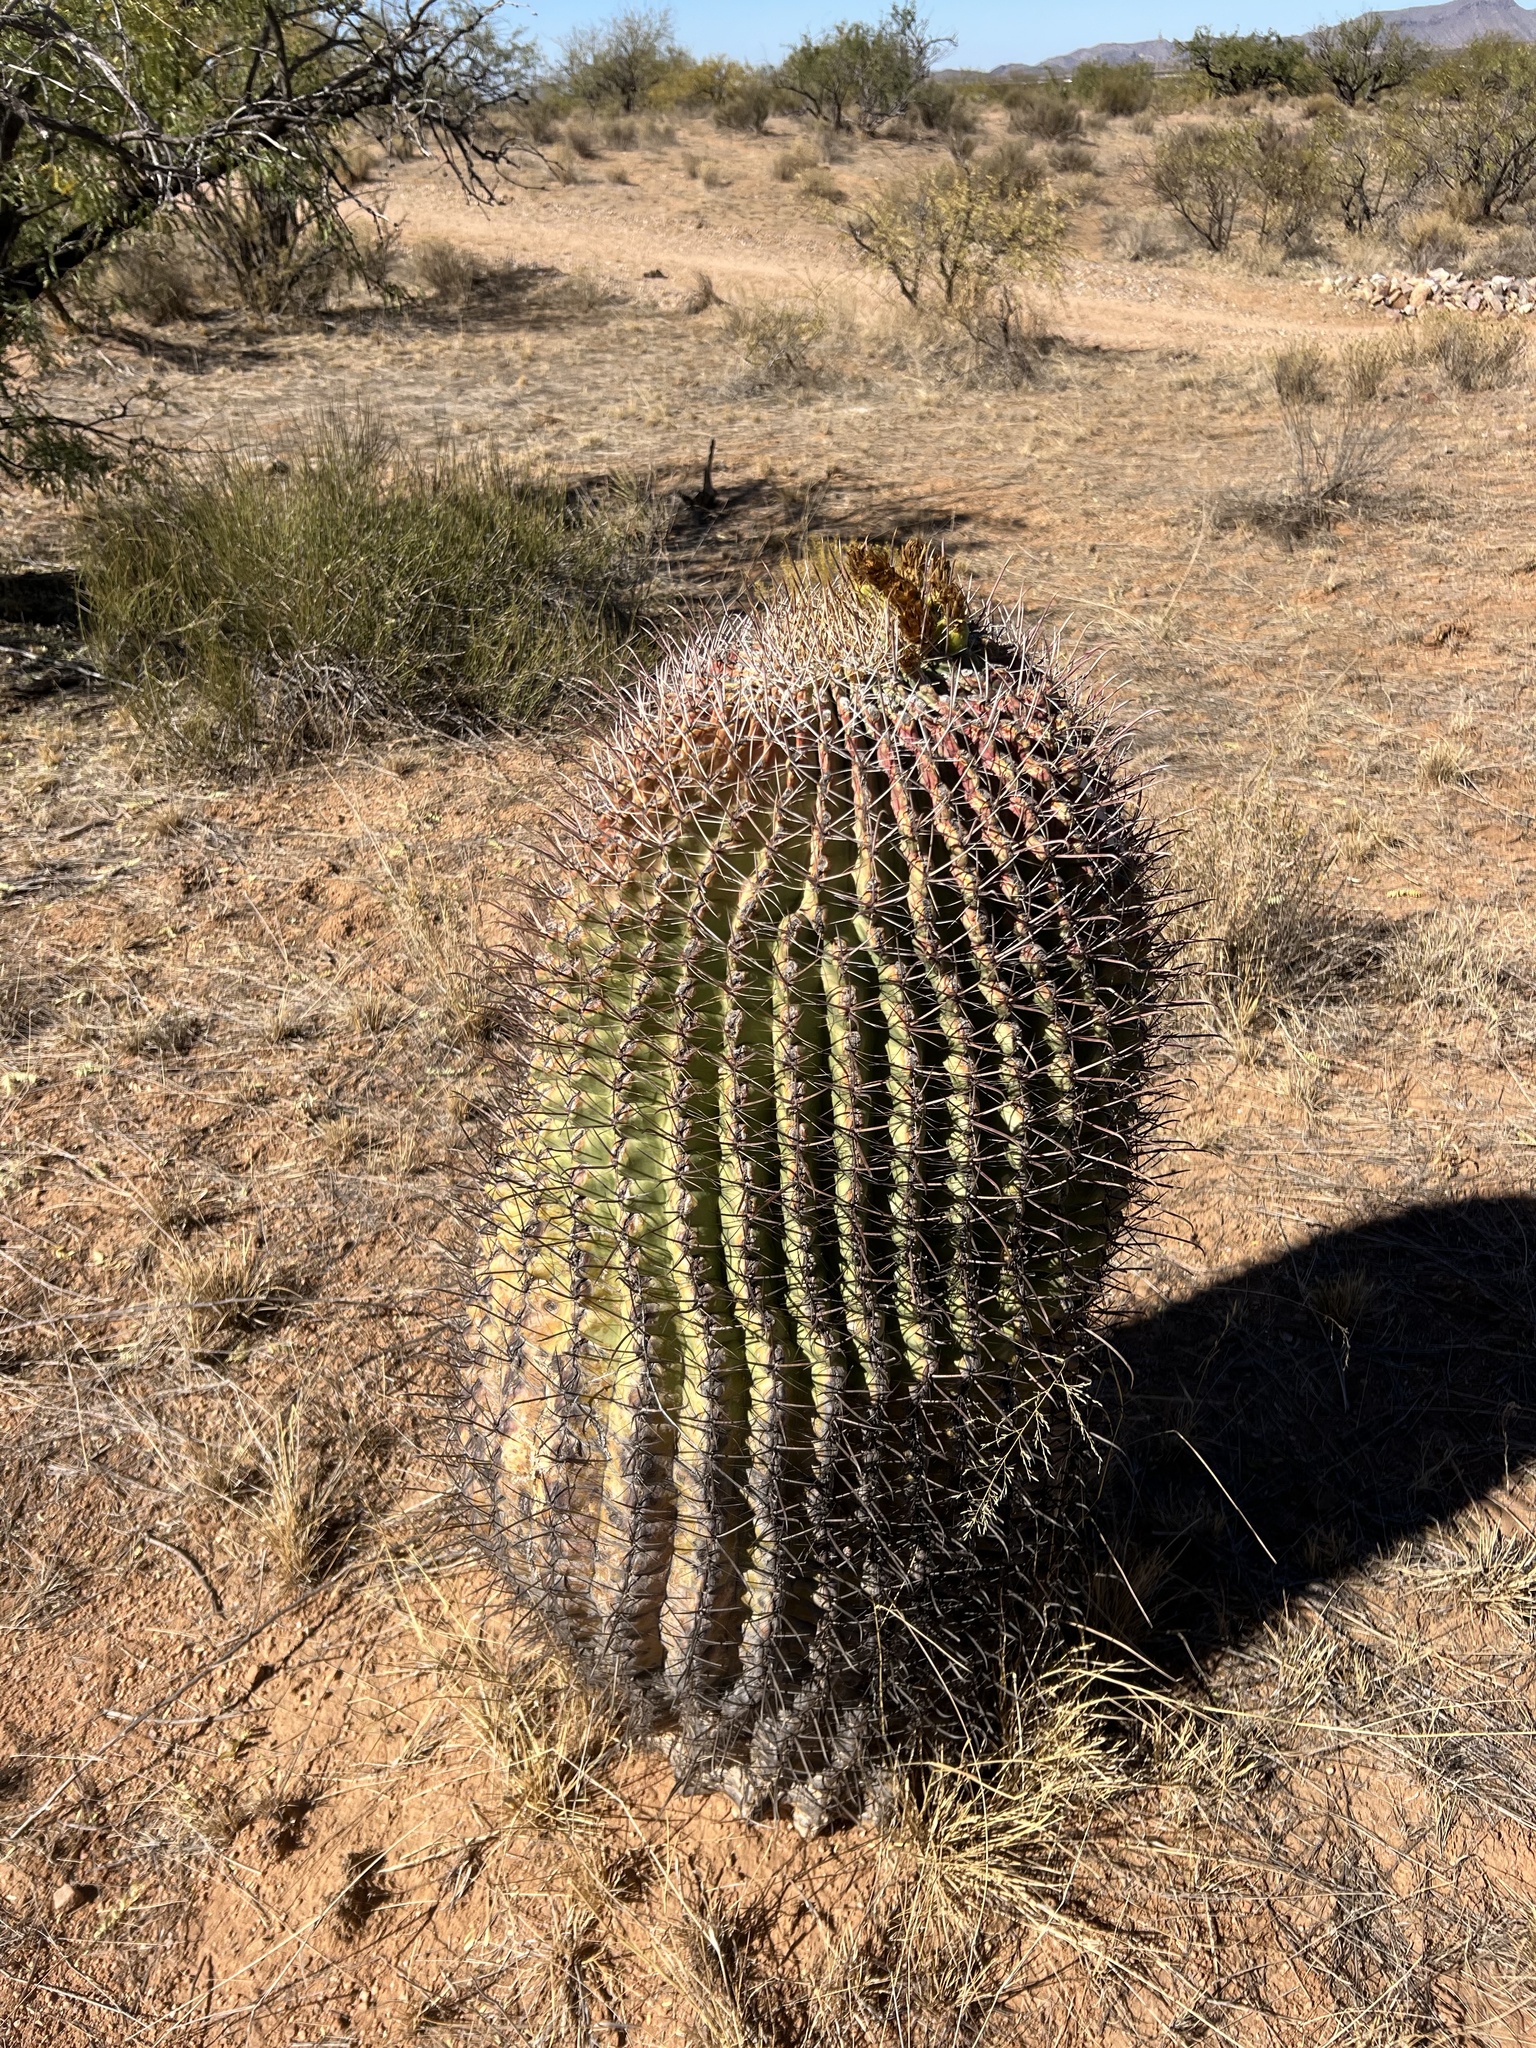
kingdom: Plantae
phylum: Tracheophyta
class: Magnoliopsida
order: Caryophyllales
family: Cactaceae
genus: Ferocactus
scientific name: Ferocactus wislizeni
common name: Candy barrel cactus
